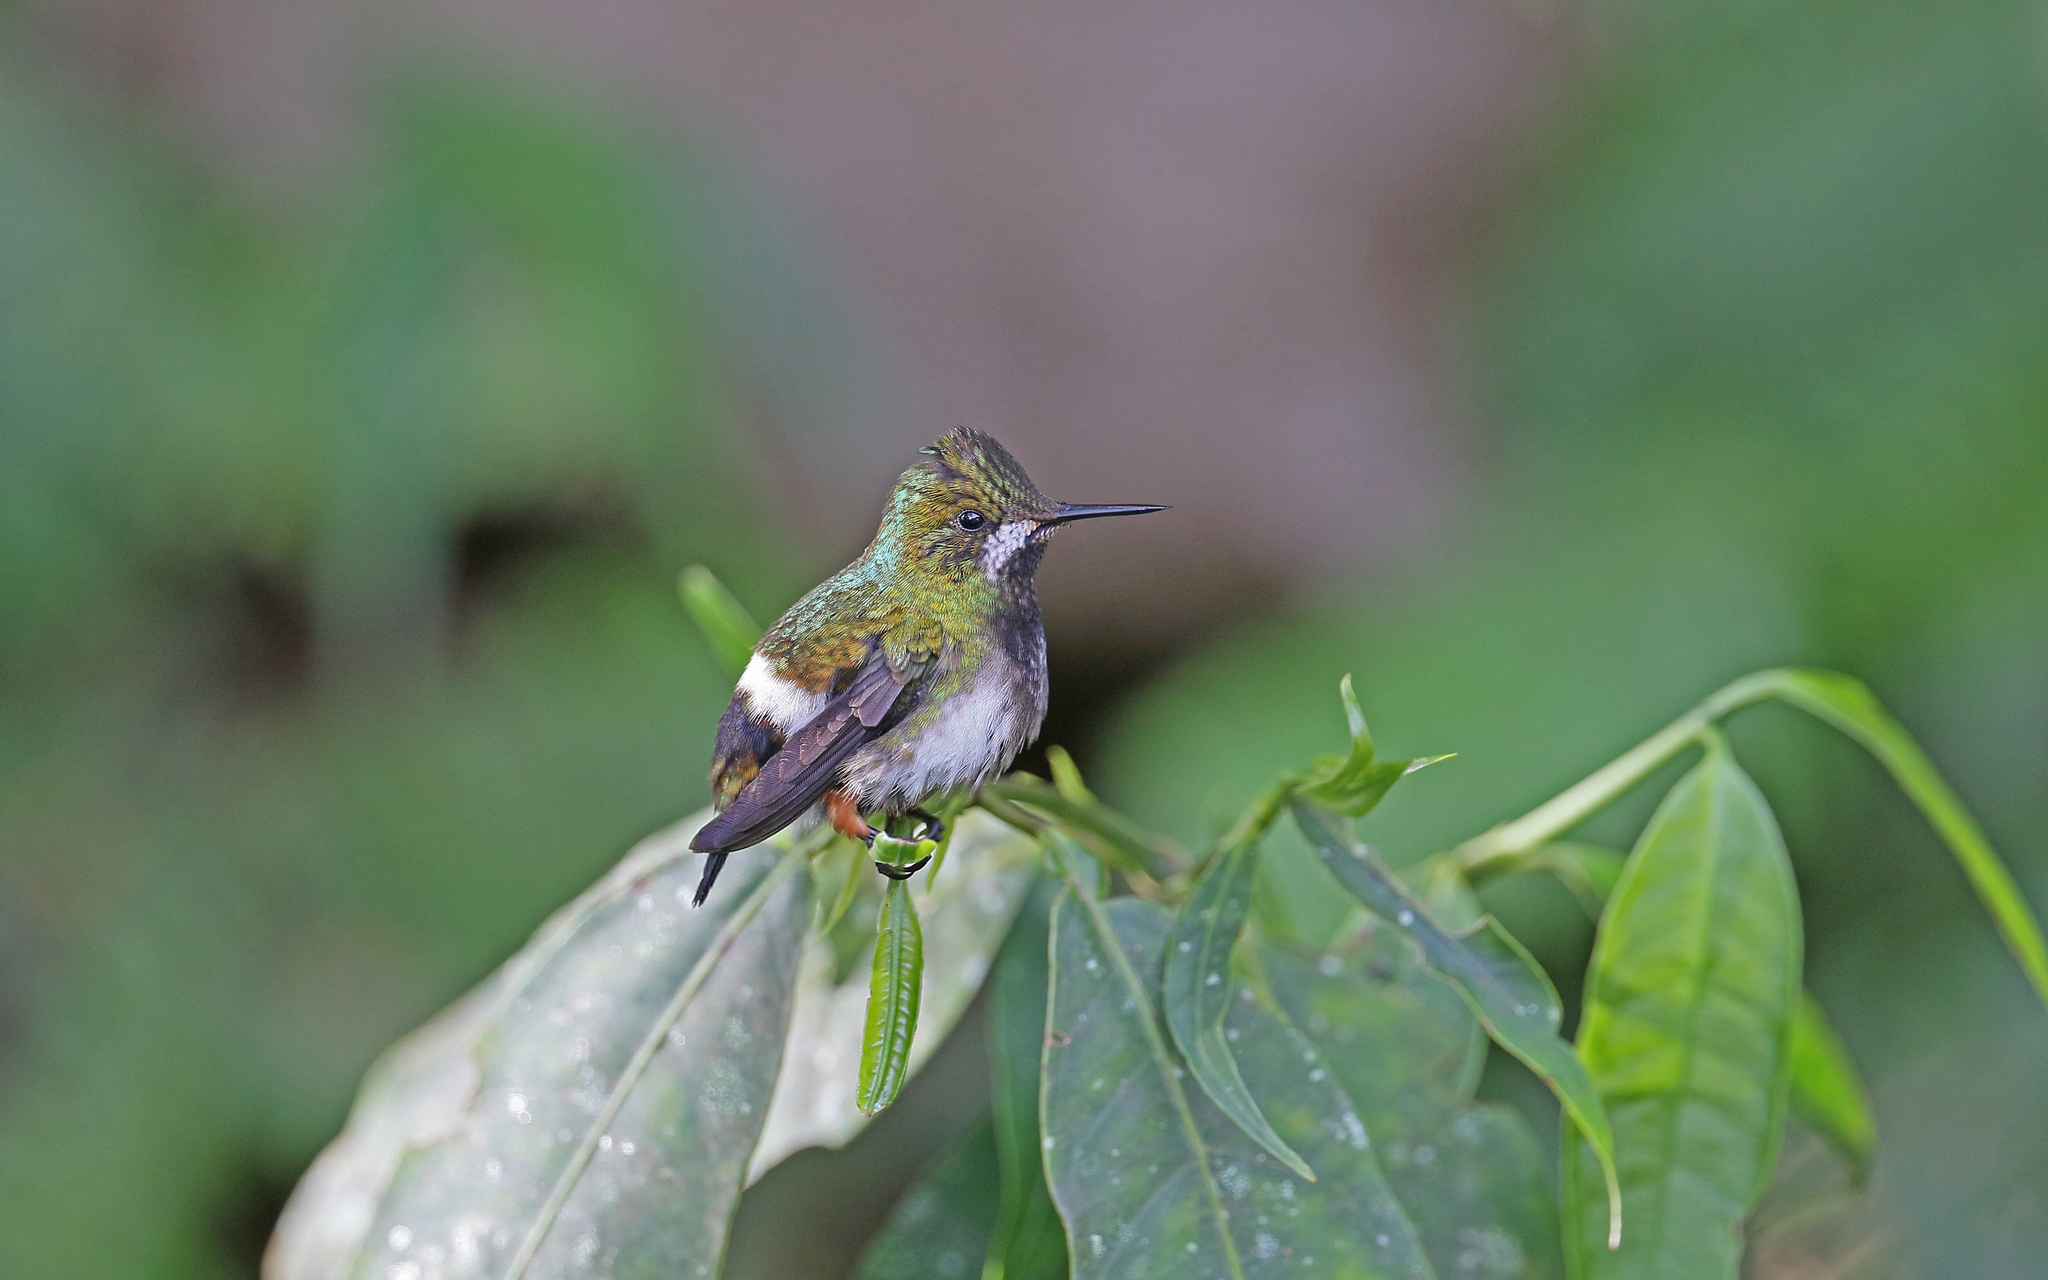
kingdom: Animalia
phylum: Chordata
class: Aves
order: Apodiformes
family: Trochilidae
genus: Discosura
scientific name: Discosura popelairii
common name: Wire-crested thorntail
